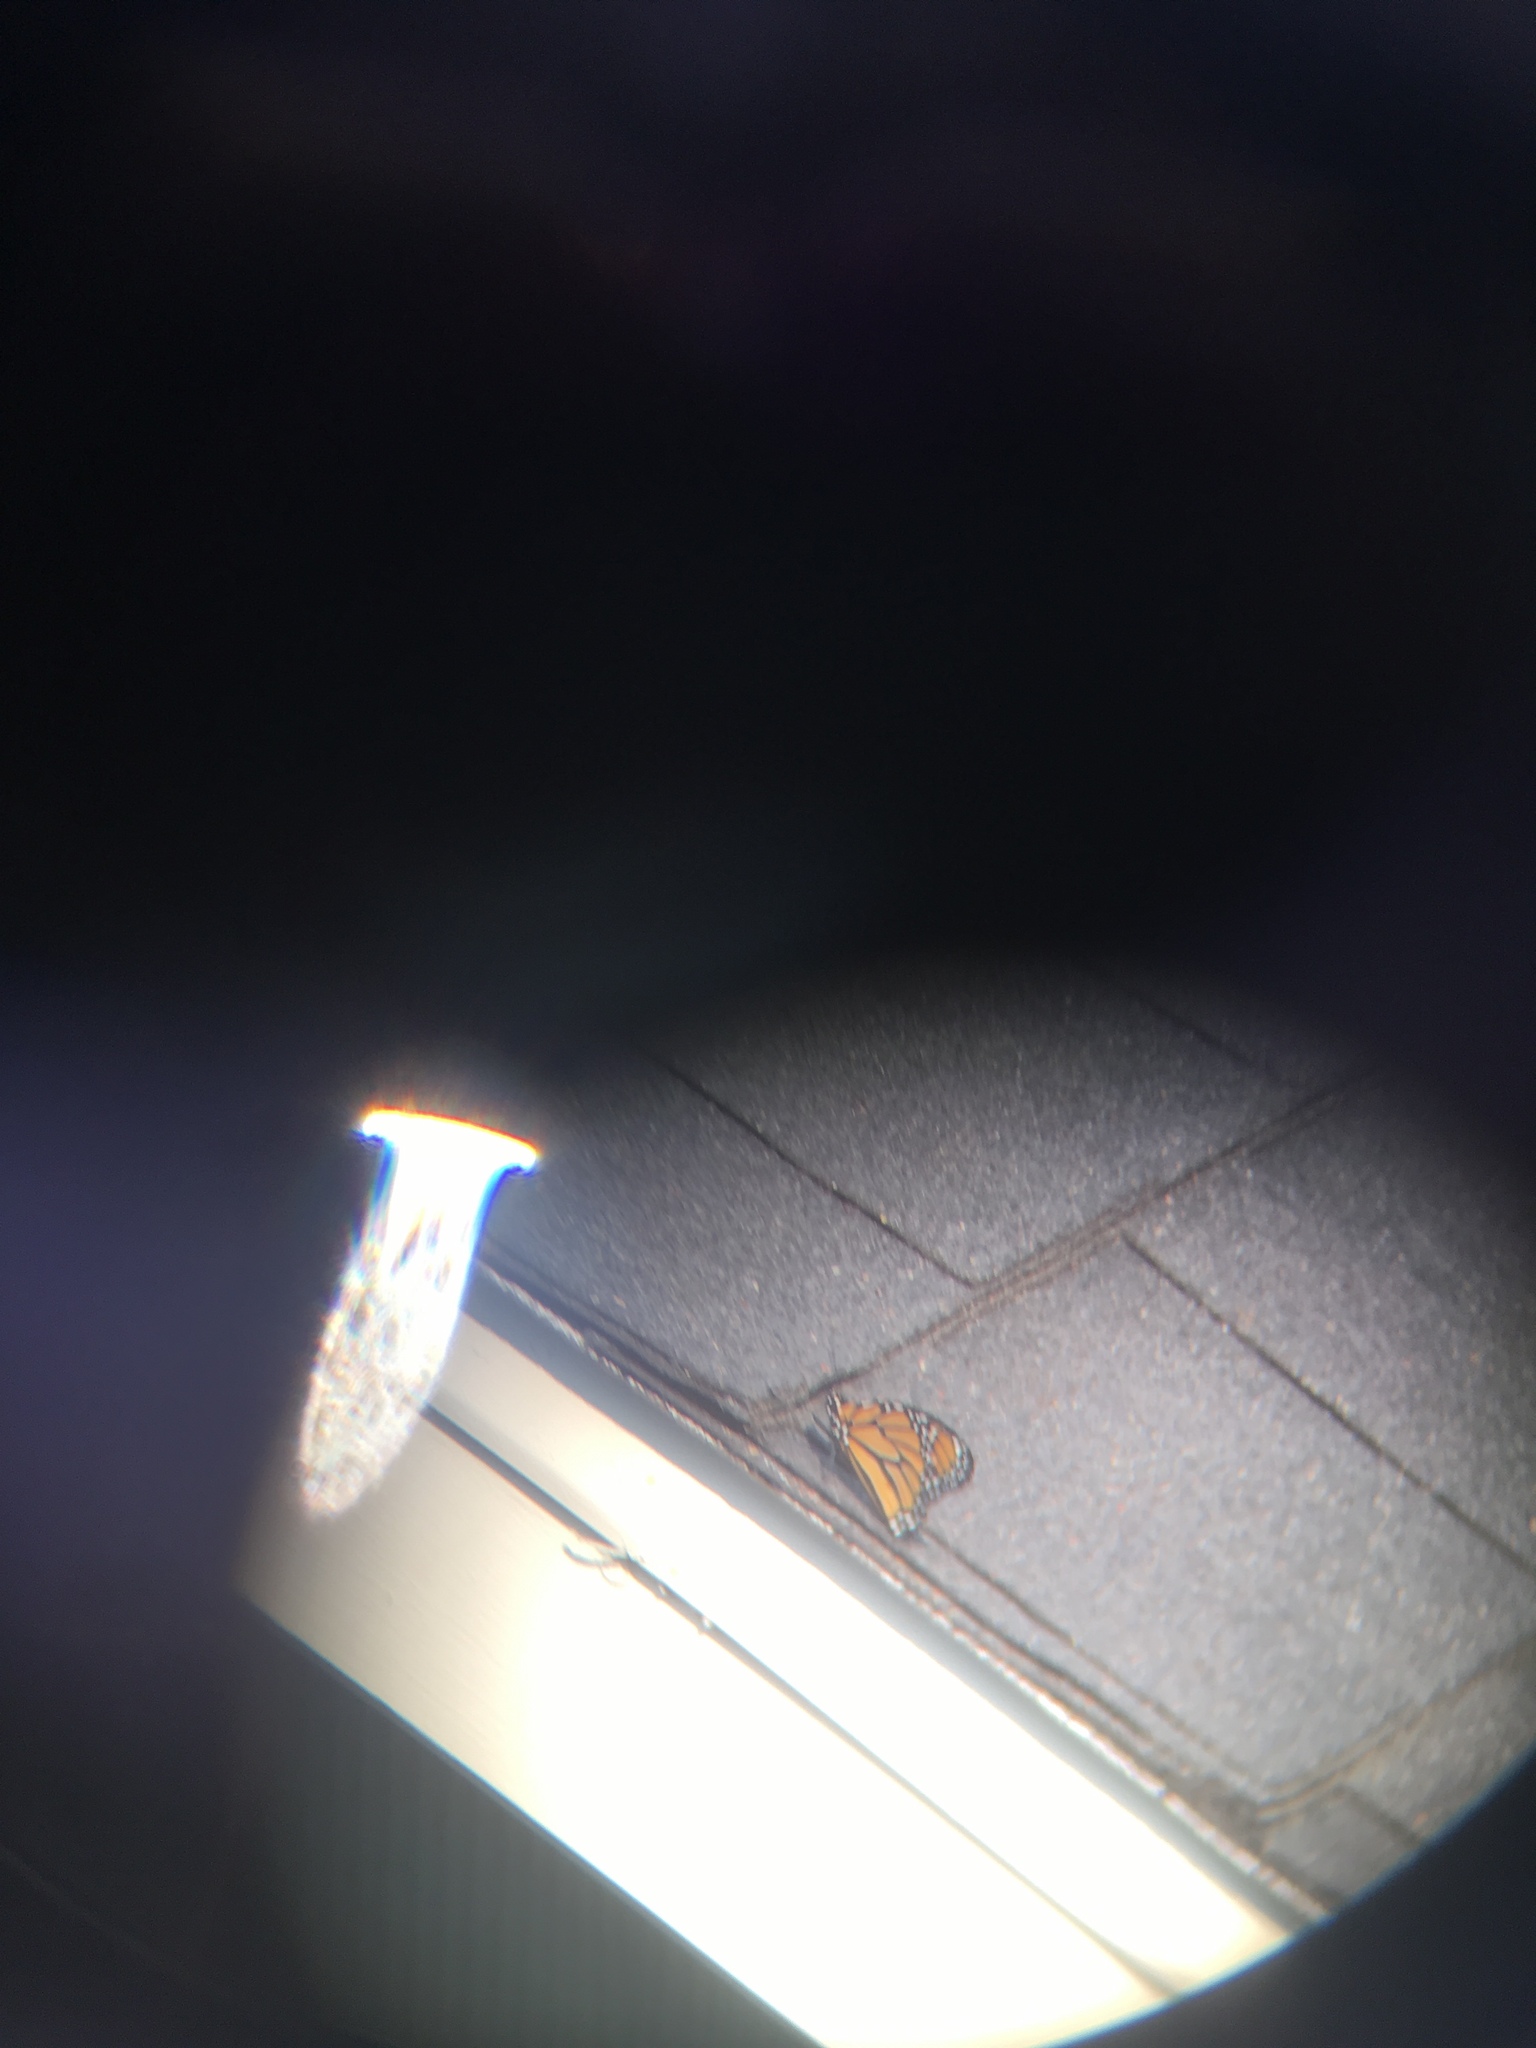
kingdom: Animalia
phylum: Arthropoda
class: Insecta
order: Lepidoptera
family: Nymphalidae
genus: Danaus
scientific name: Danaus plexippus
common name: Monarch
